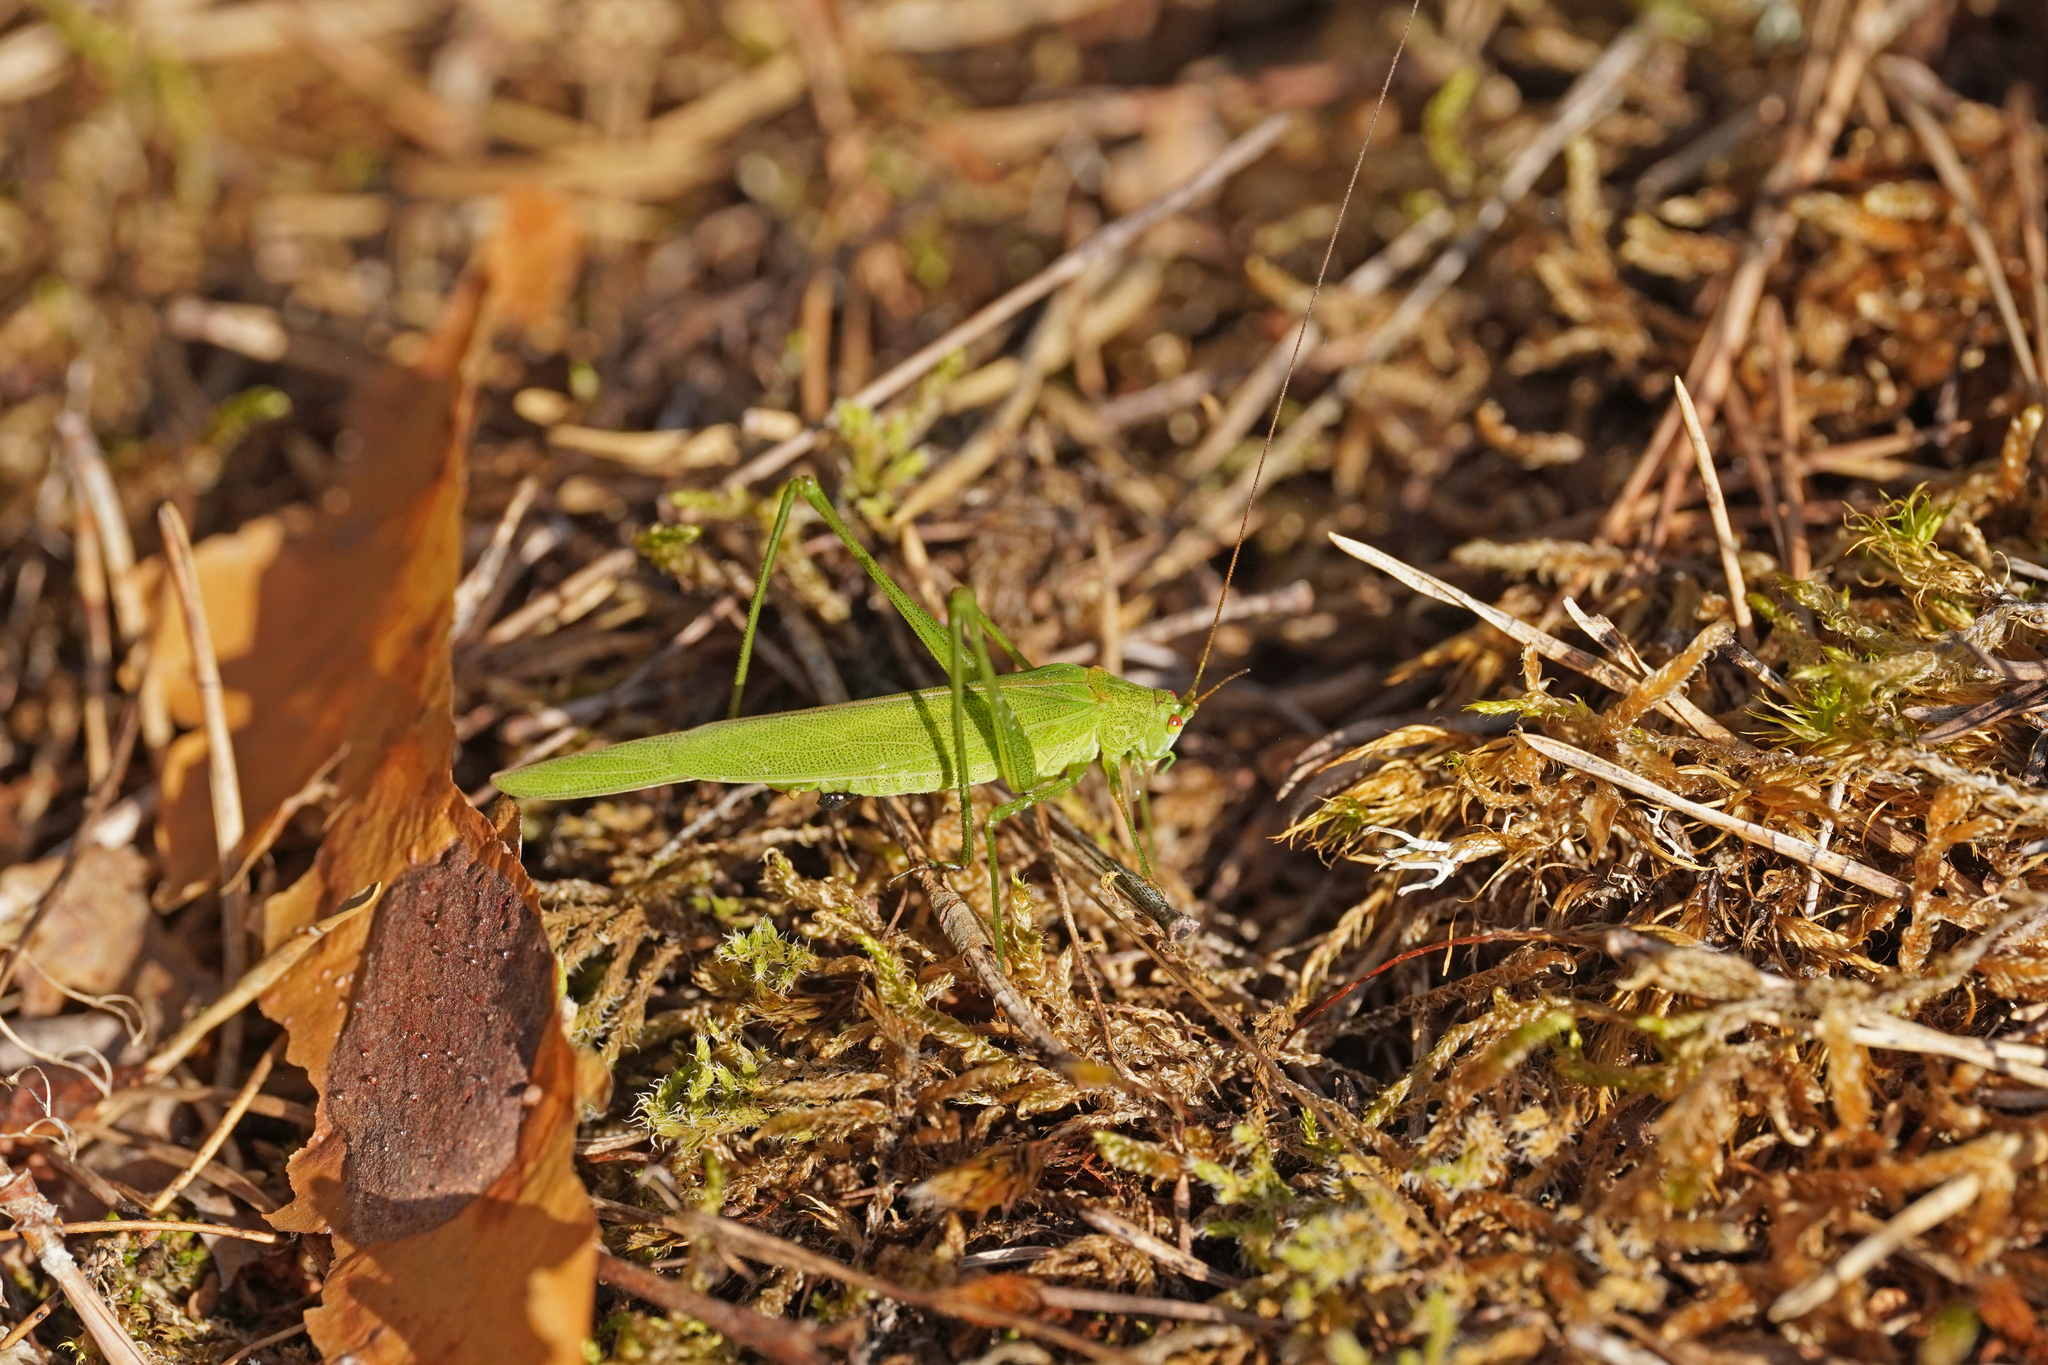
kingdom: Animalia
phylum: Arthropoda
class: Insecta
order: Orthoptera
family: Tettigoniidae
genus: Phaneroptera
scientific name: Phaneroptera falcata
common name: Sickle-bearing bush-cricket
